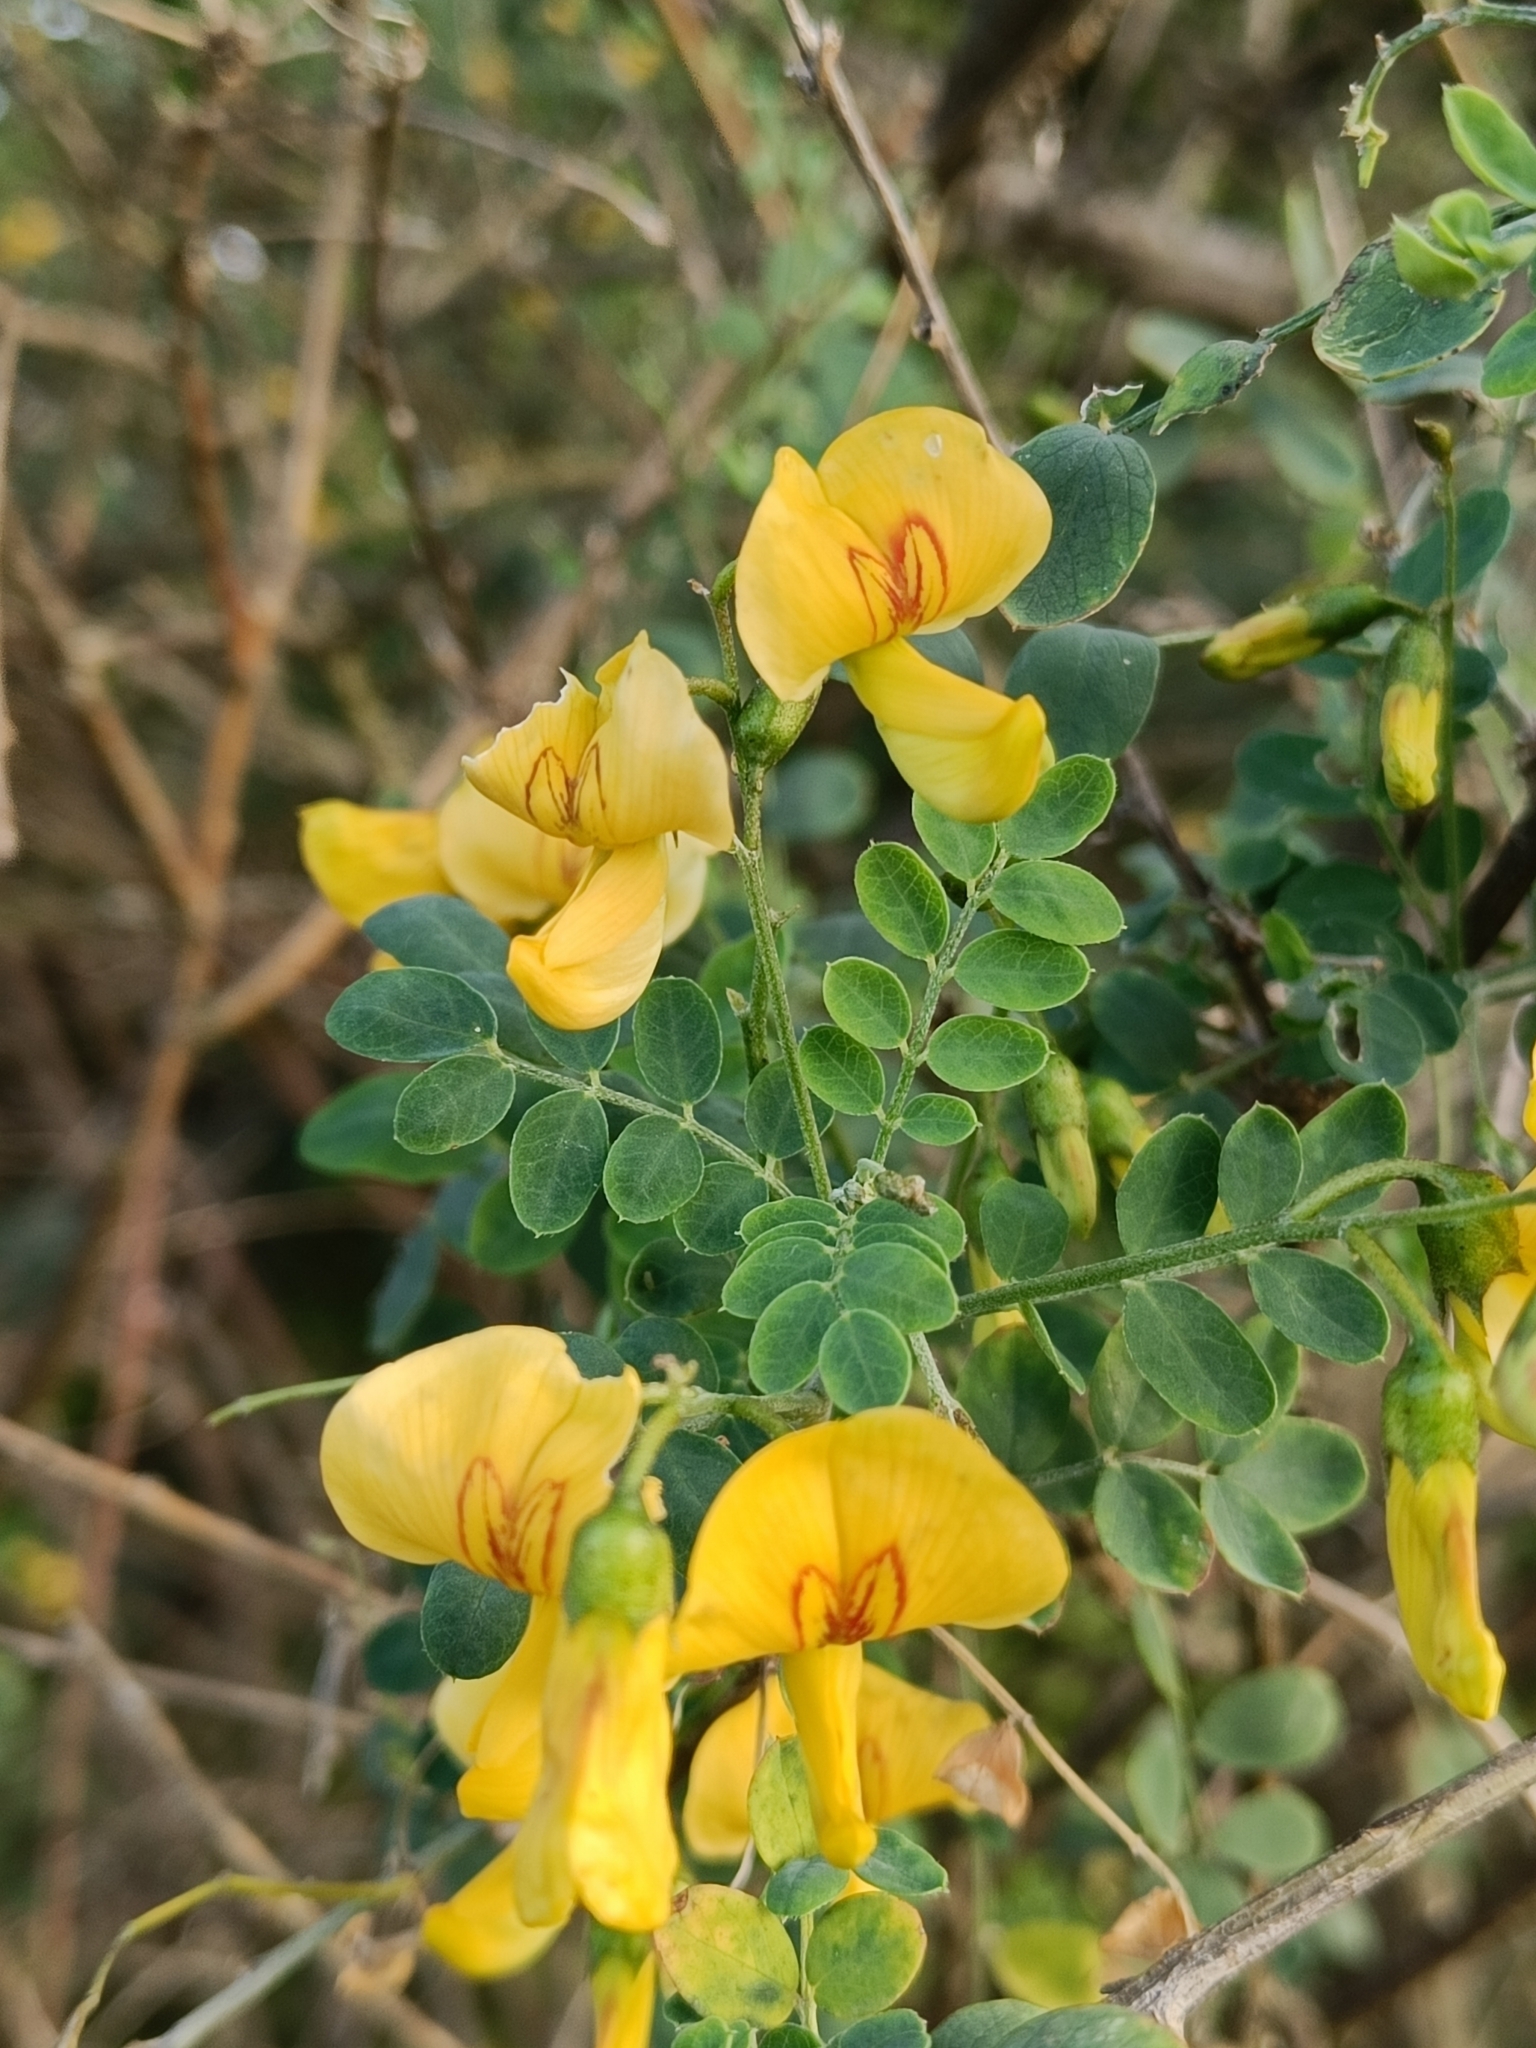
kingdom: Plantae
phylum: Tracheophyta
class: Magnoliopsida
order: Fabales
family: Fabaceae
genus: Colutea
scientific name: Colutea arborescens
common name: Bladder-senna
